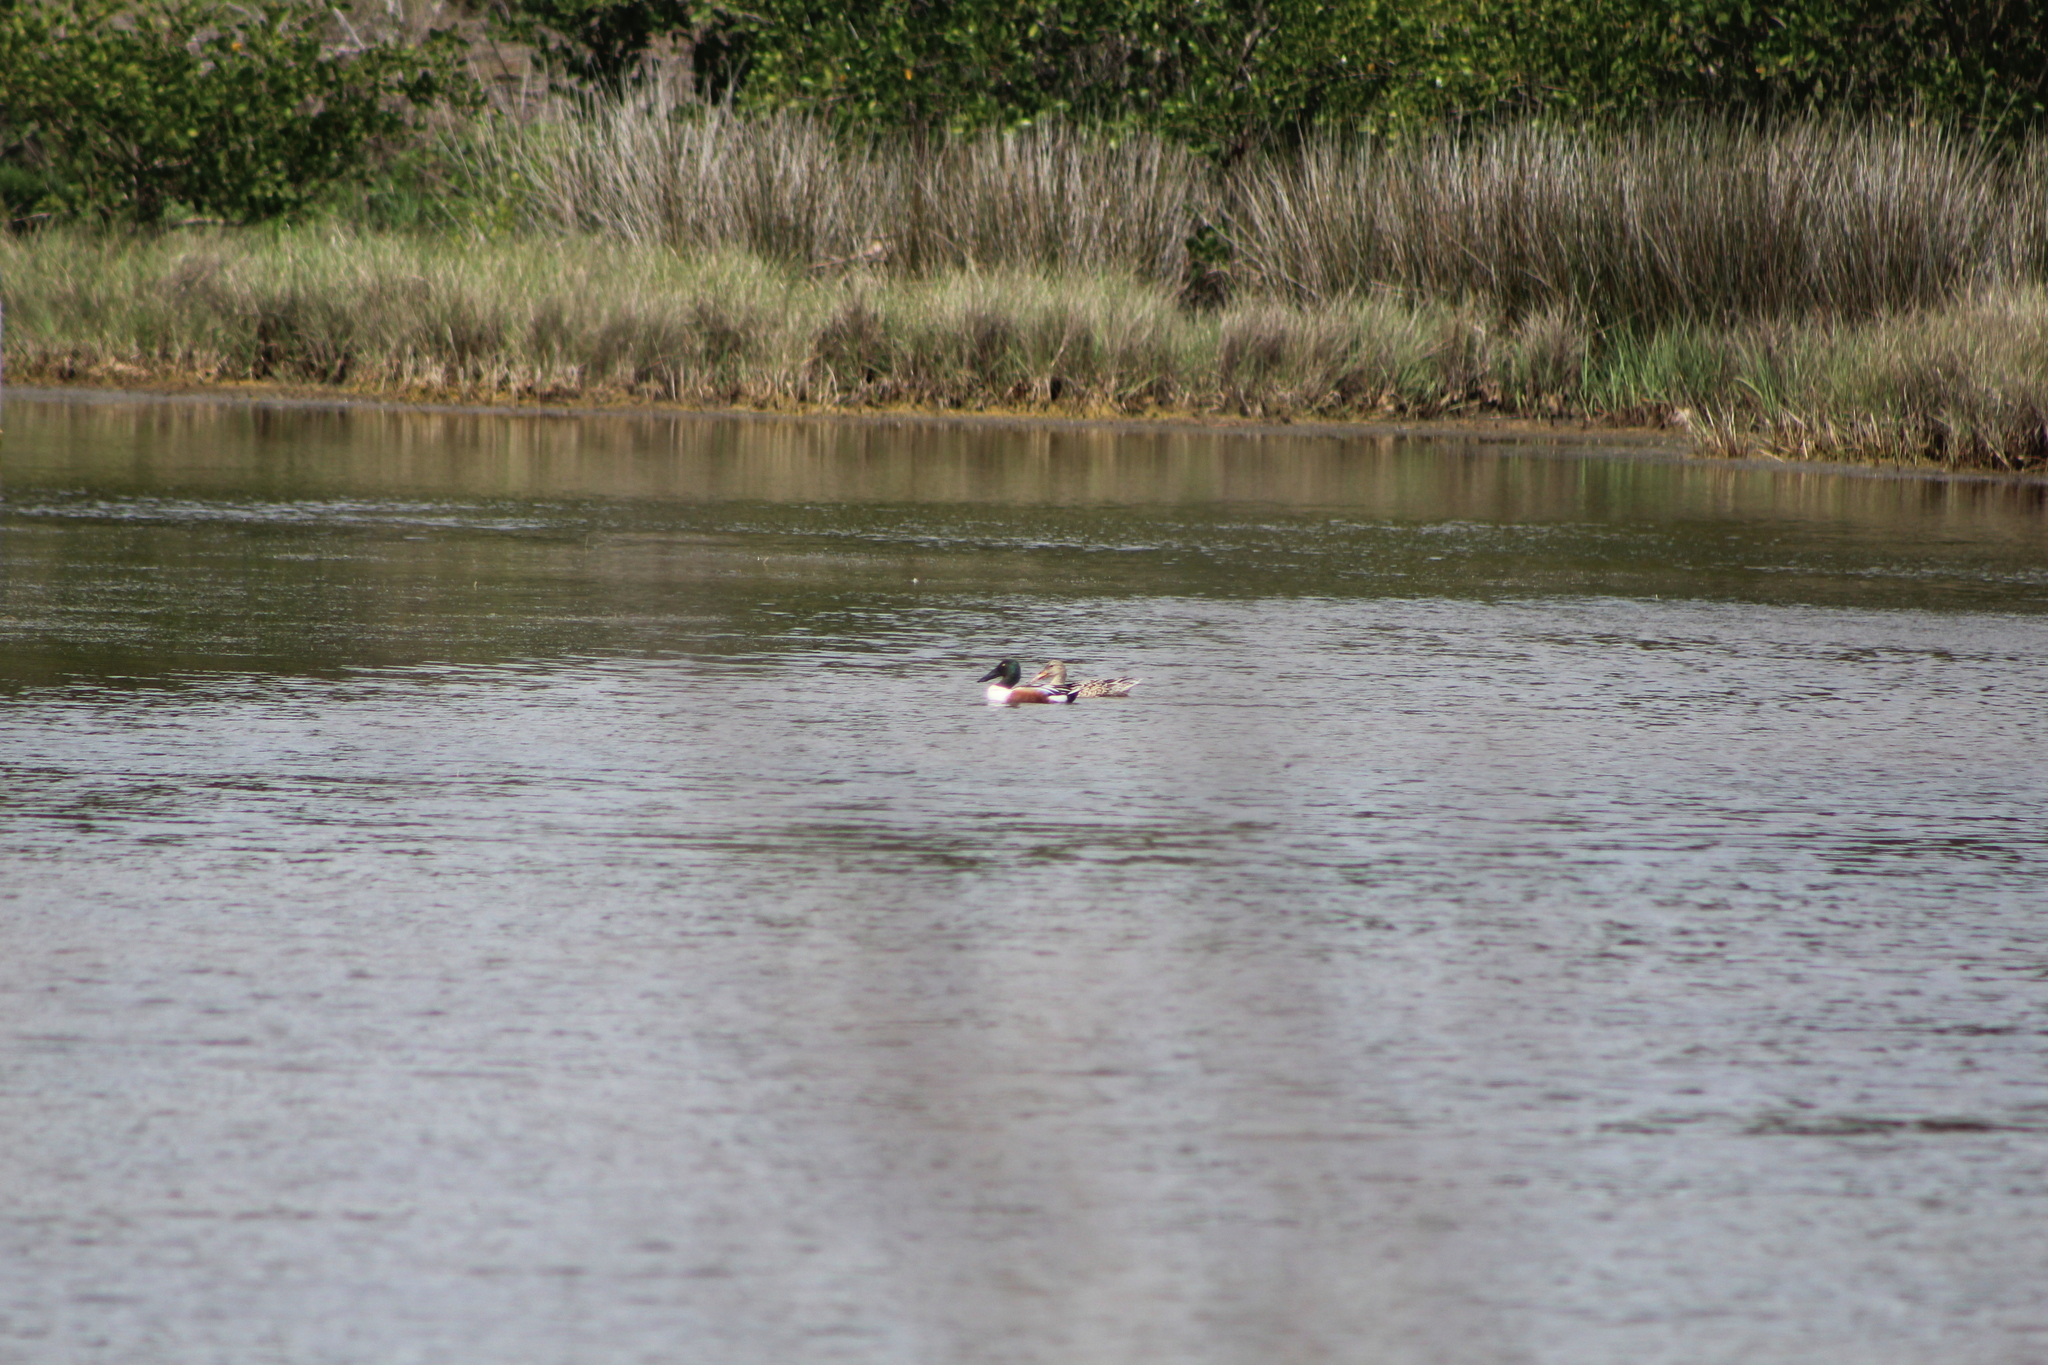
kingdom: Animalia
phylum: Chordata
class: Aves
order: Anseriformes
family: Anatidae
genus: Spatula
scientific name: Spatula clypeata
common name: Northern shoveler
